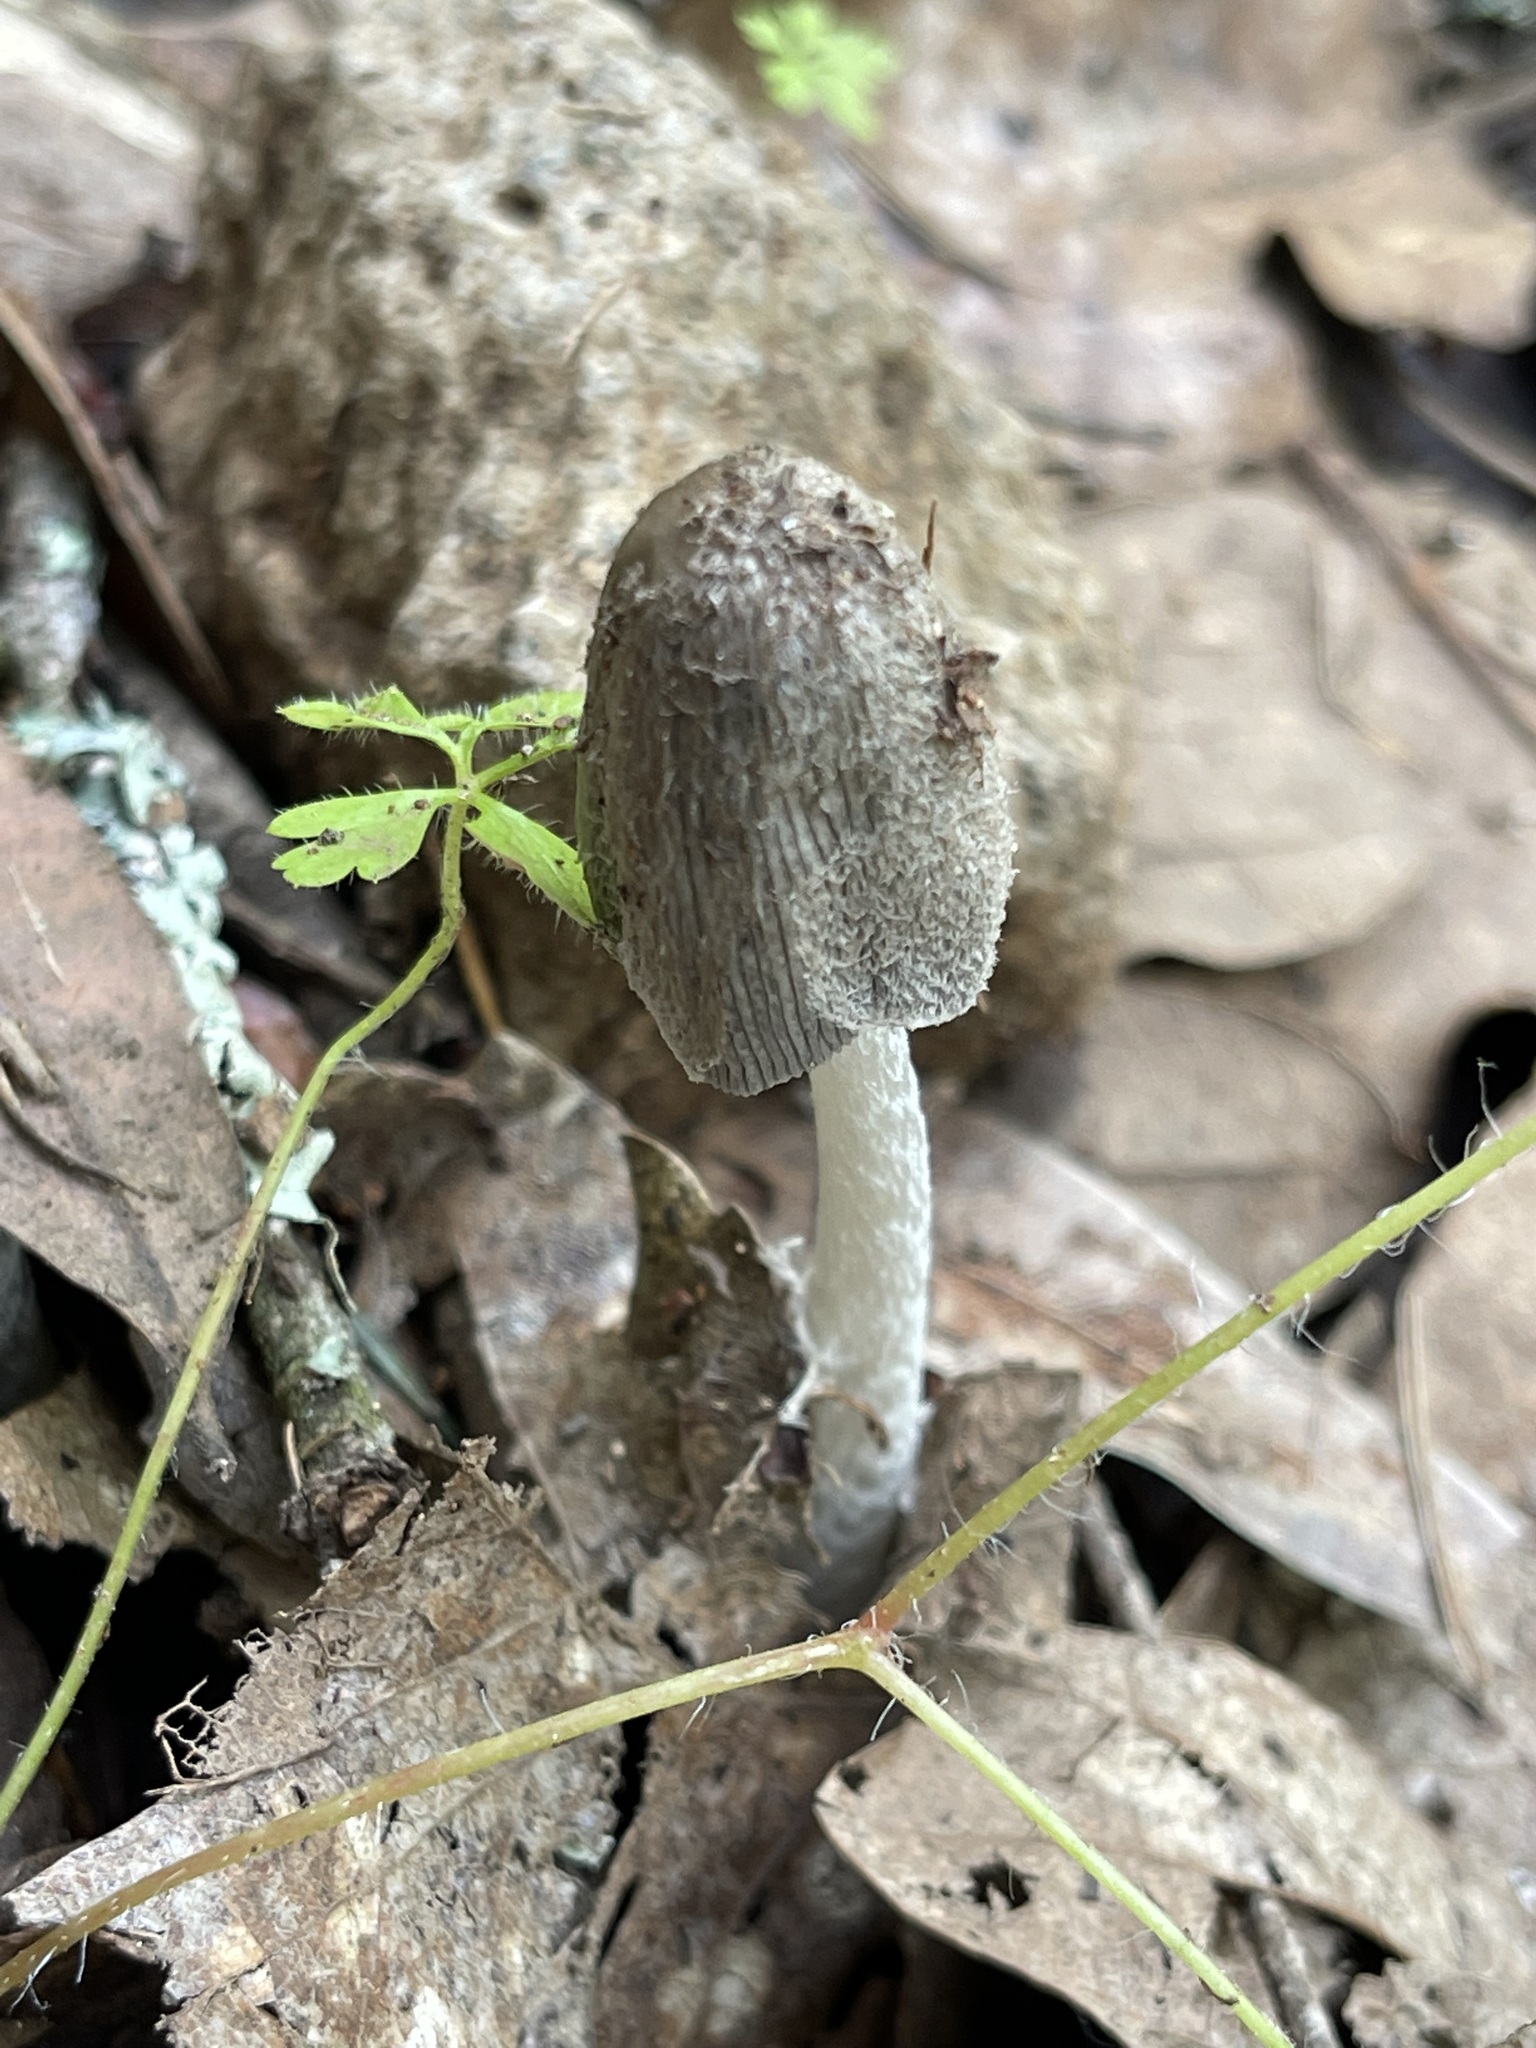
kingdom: Fungi
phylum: Basidiomycota
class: Agaricomycetes
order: Agaricales
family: Psathyrellaceae
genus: Coprinopsis
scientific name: Coprinopsis lagopus
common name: Hare'sfoot inkcap
